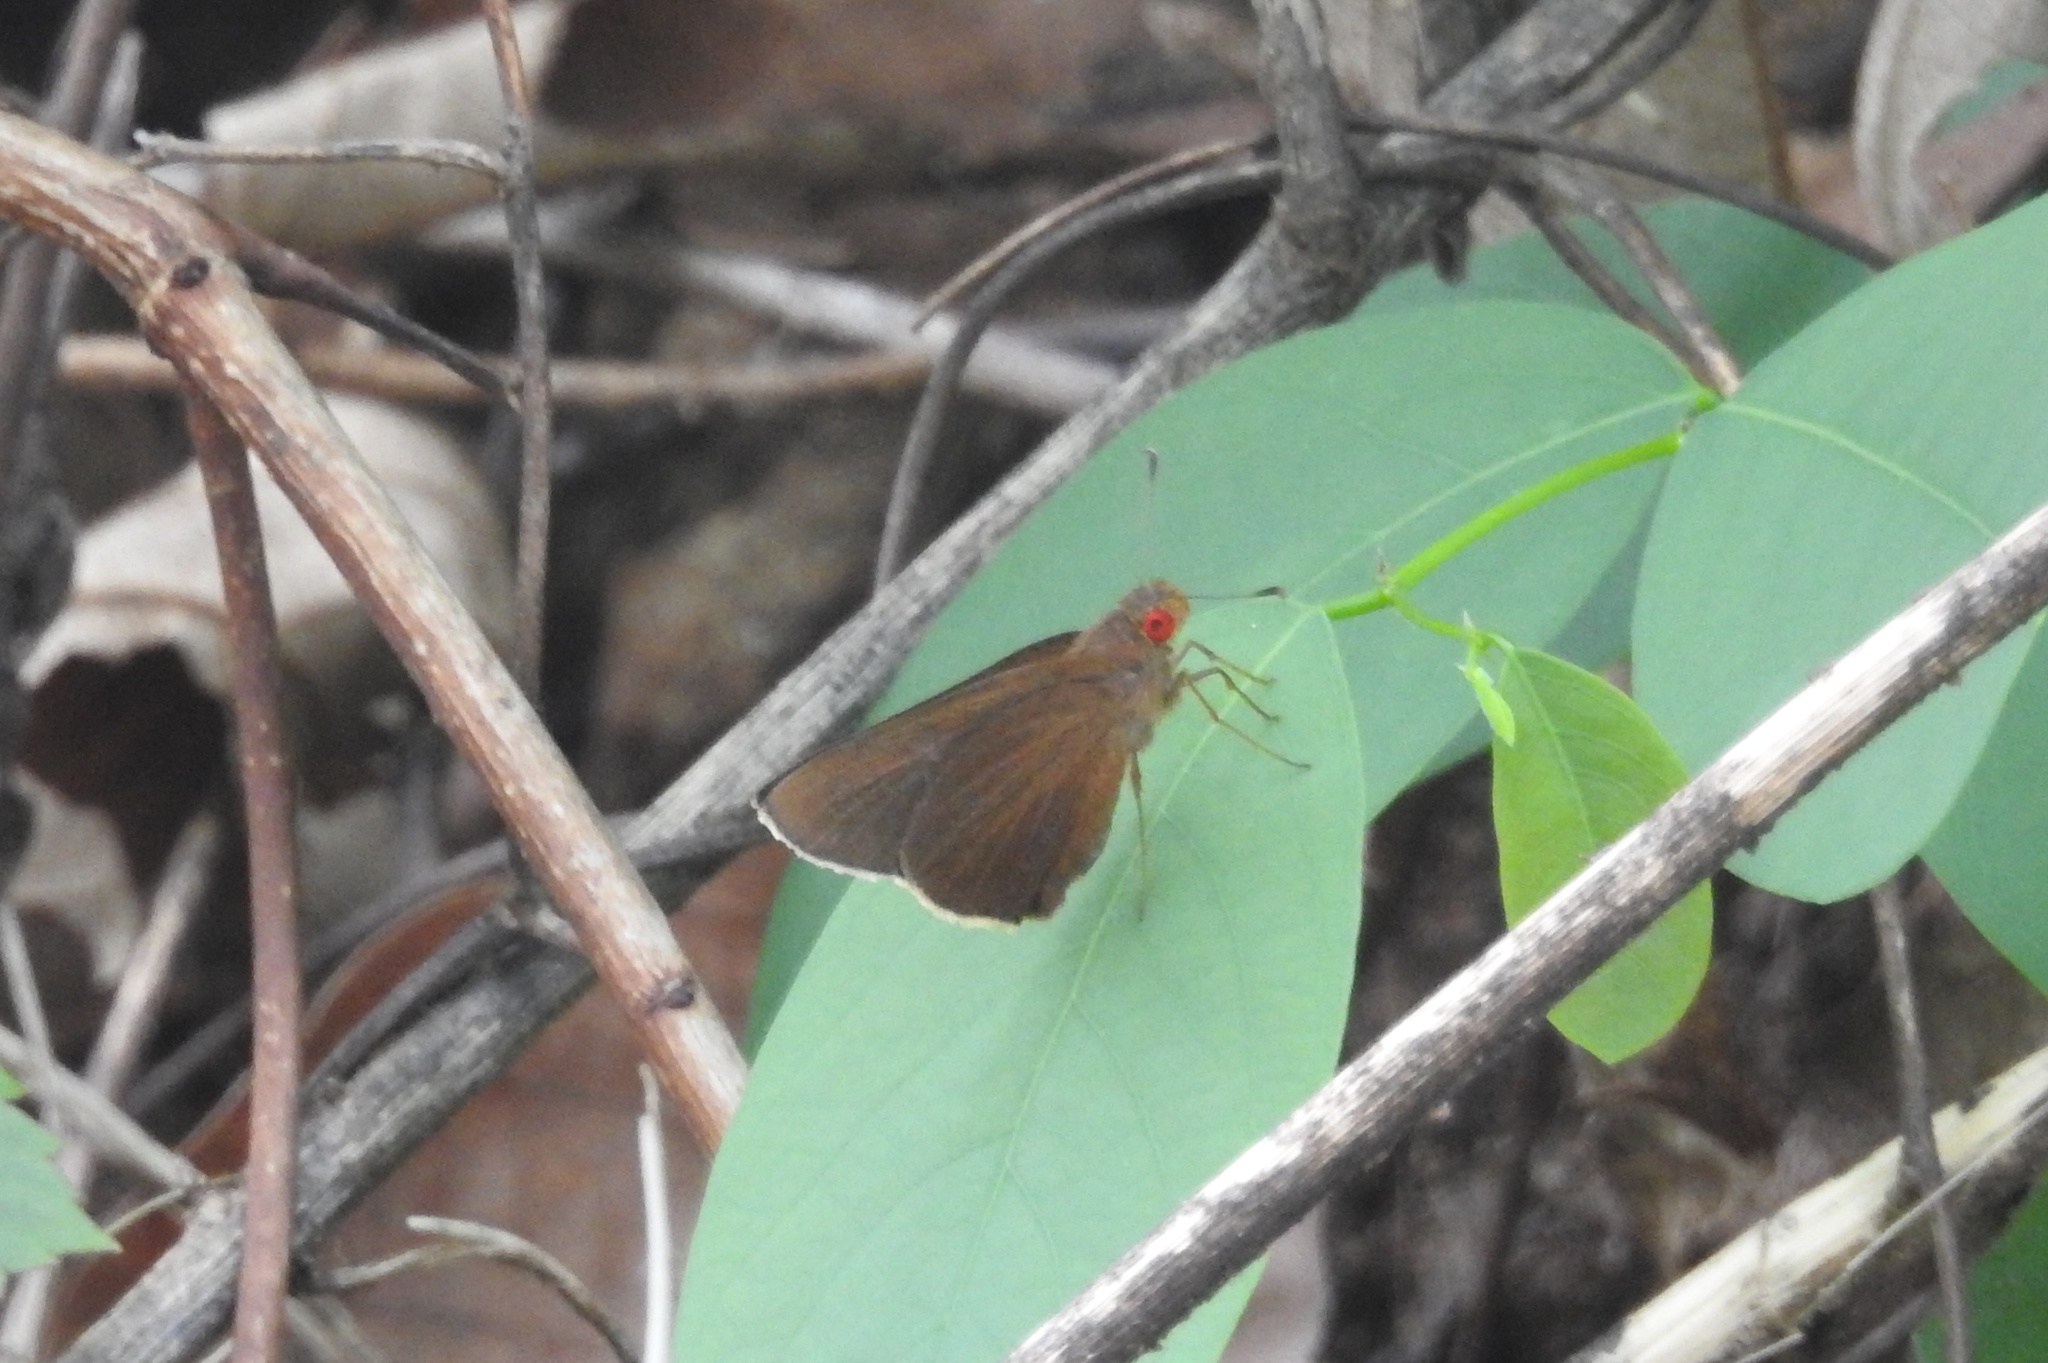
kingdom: Animalia
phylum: Arthropoda
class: Insecta
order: Lepidoptera
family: Hesperiidae
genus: Matapa
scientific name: Matapa aria
